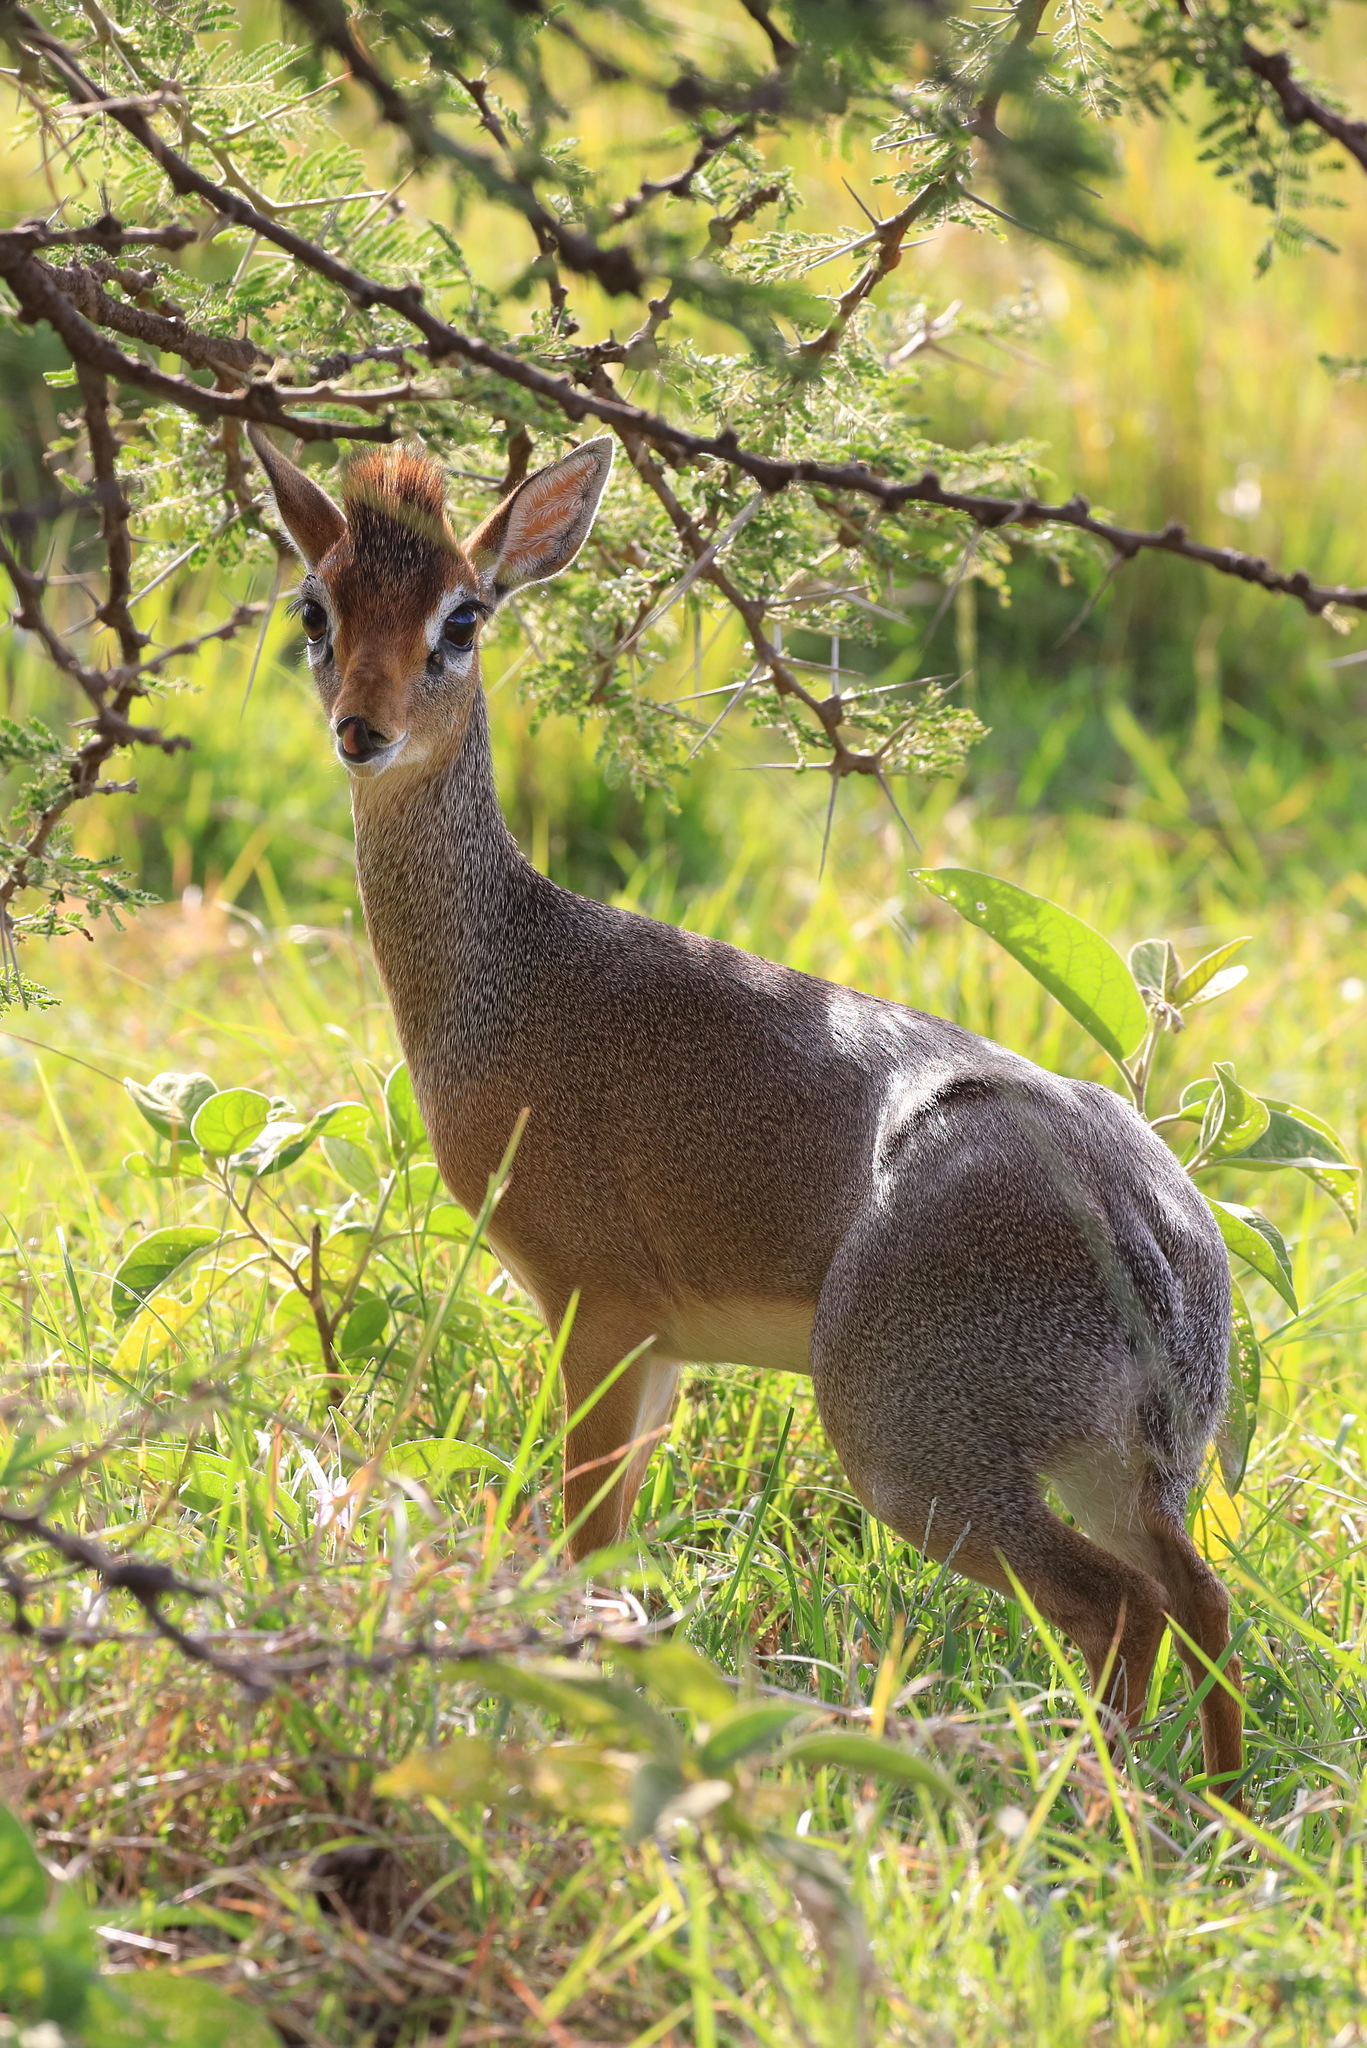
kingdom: Animalia
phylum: Chordata
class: Mammalia
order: Artiodactyla
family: Bovidae
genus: Madoqua
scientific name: Madoqua
